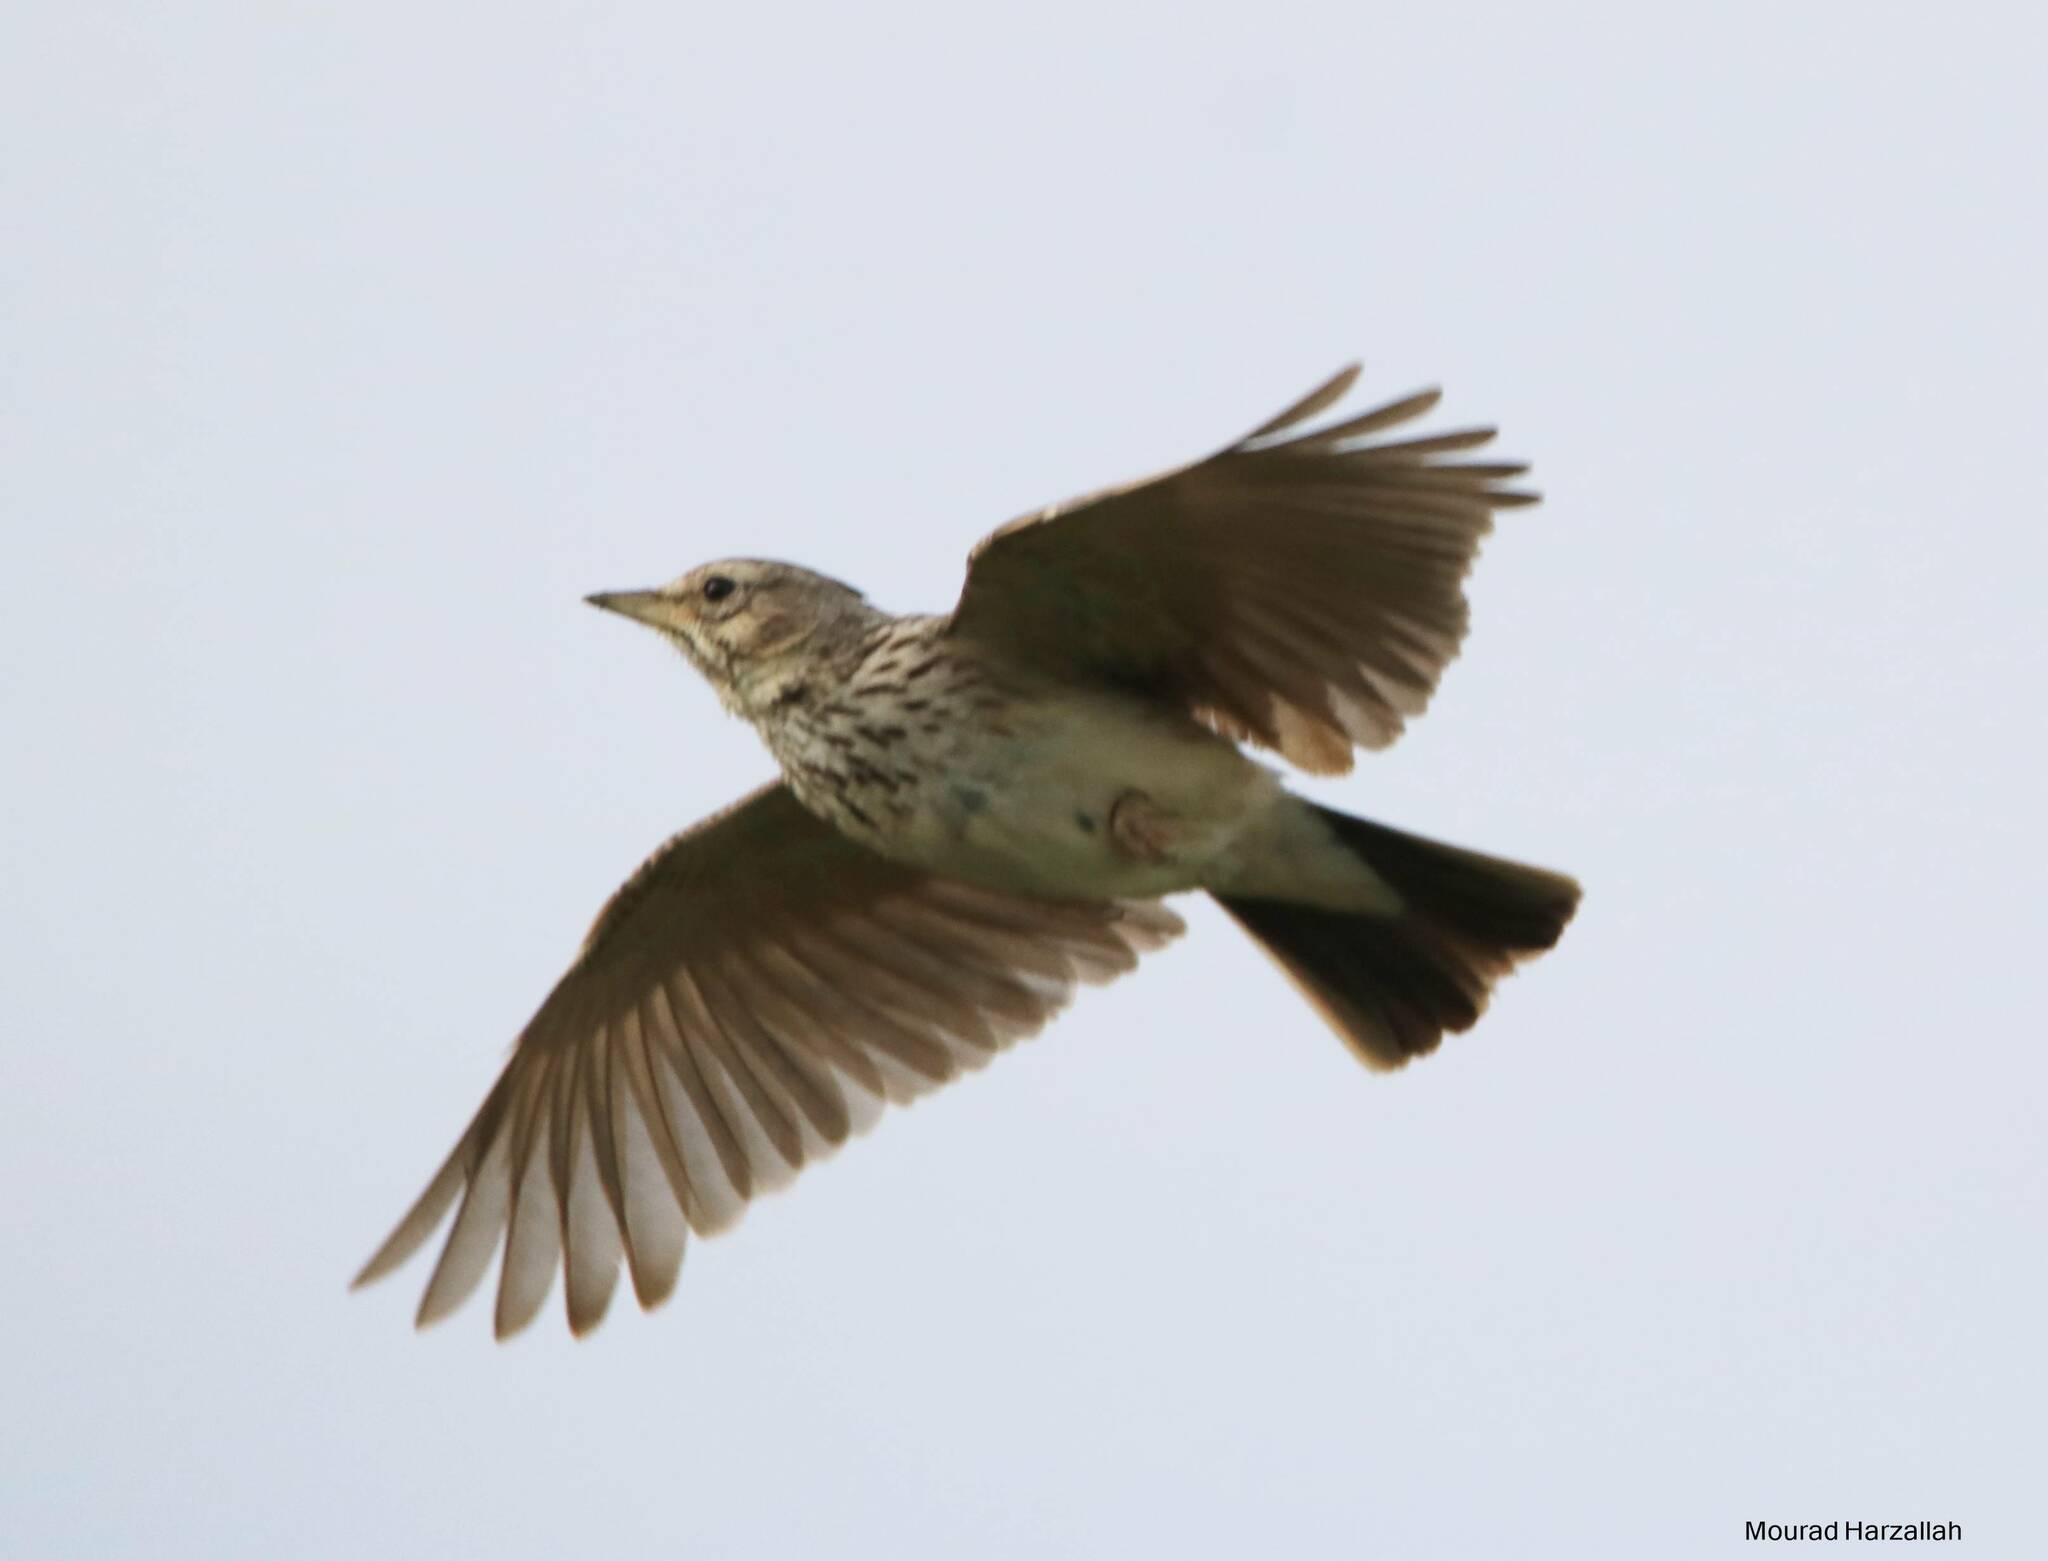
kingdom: Animalia
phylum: Chordata
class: Aves
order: Passeriformes
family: Alaudidae
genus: Galerida
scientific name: Galerida cristata
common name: Crested lark
